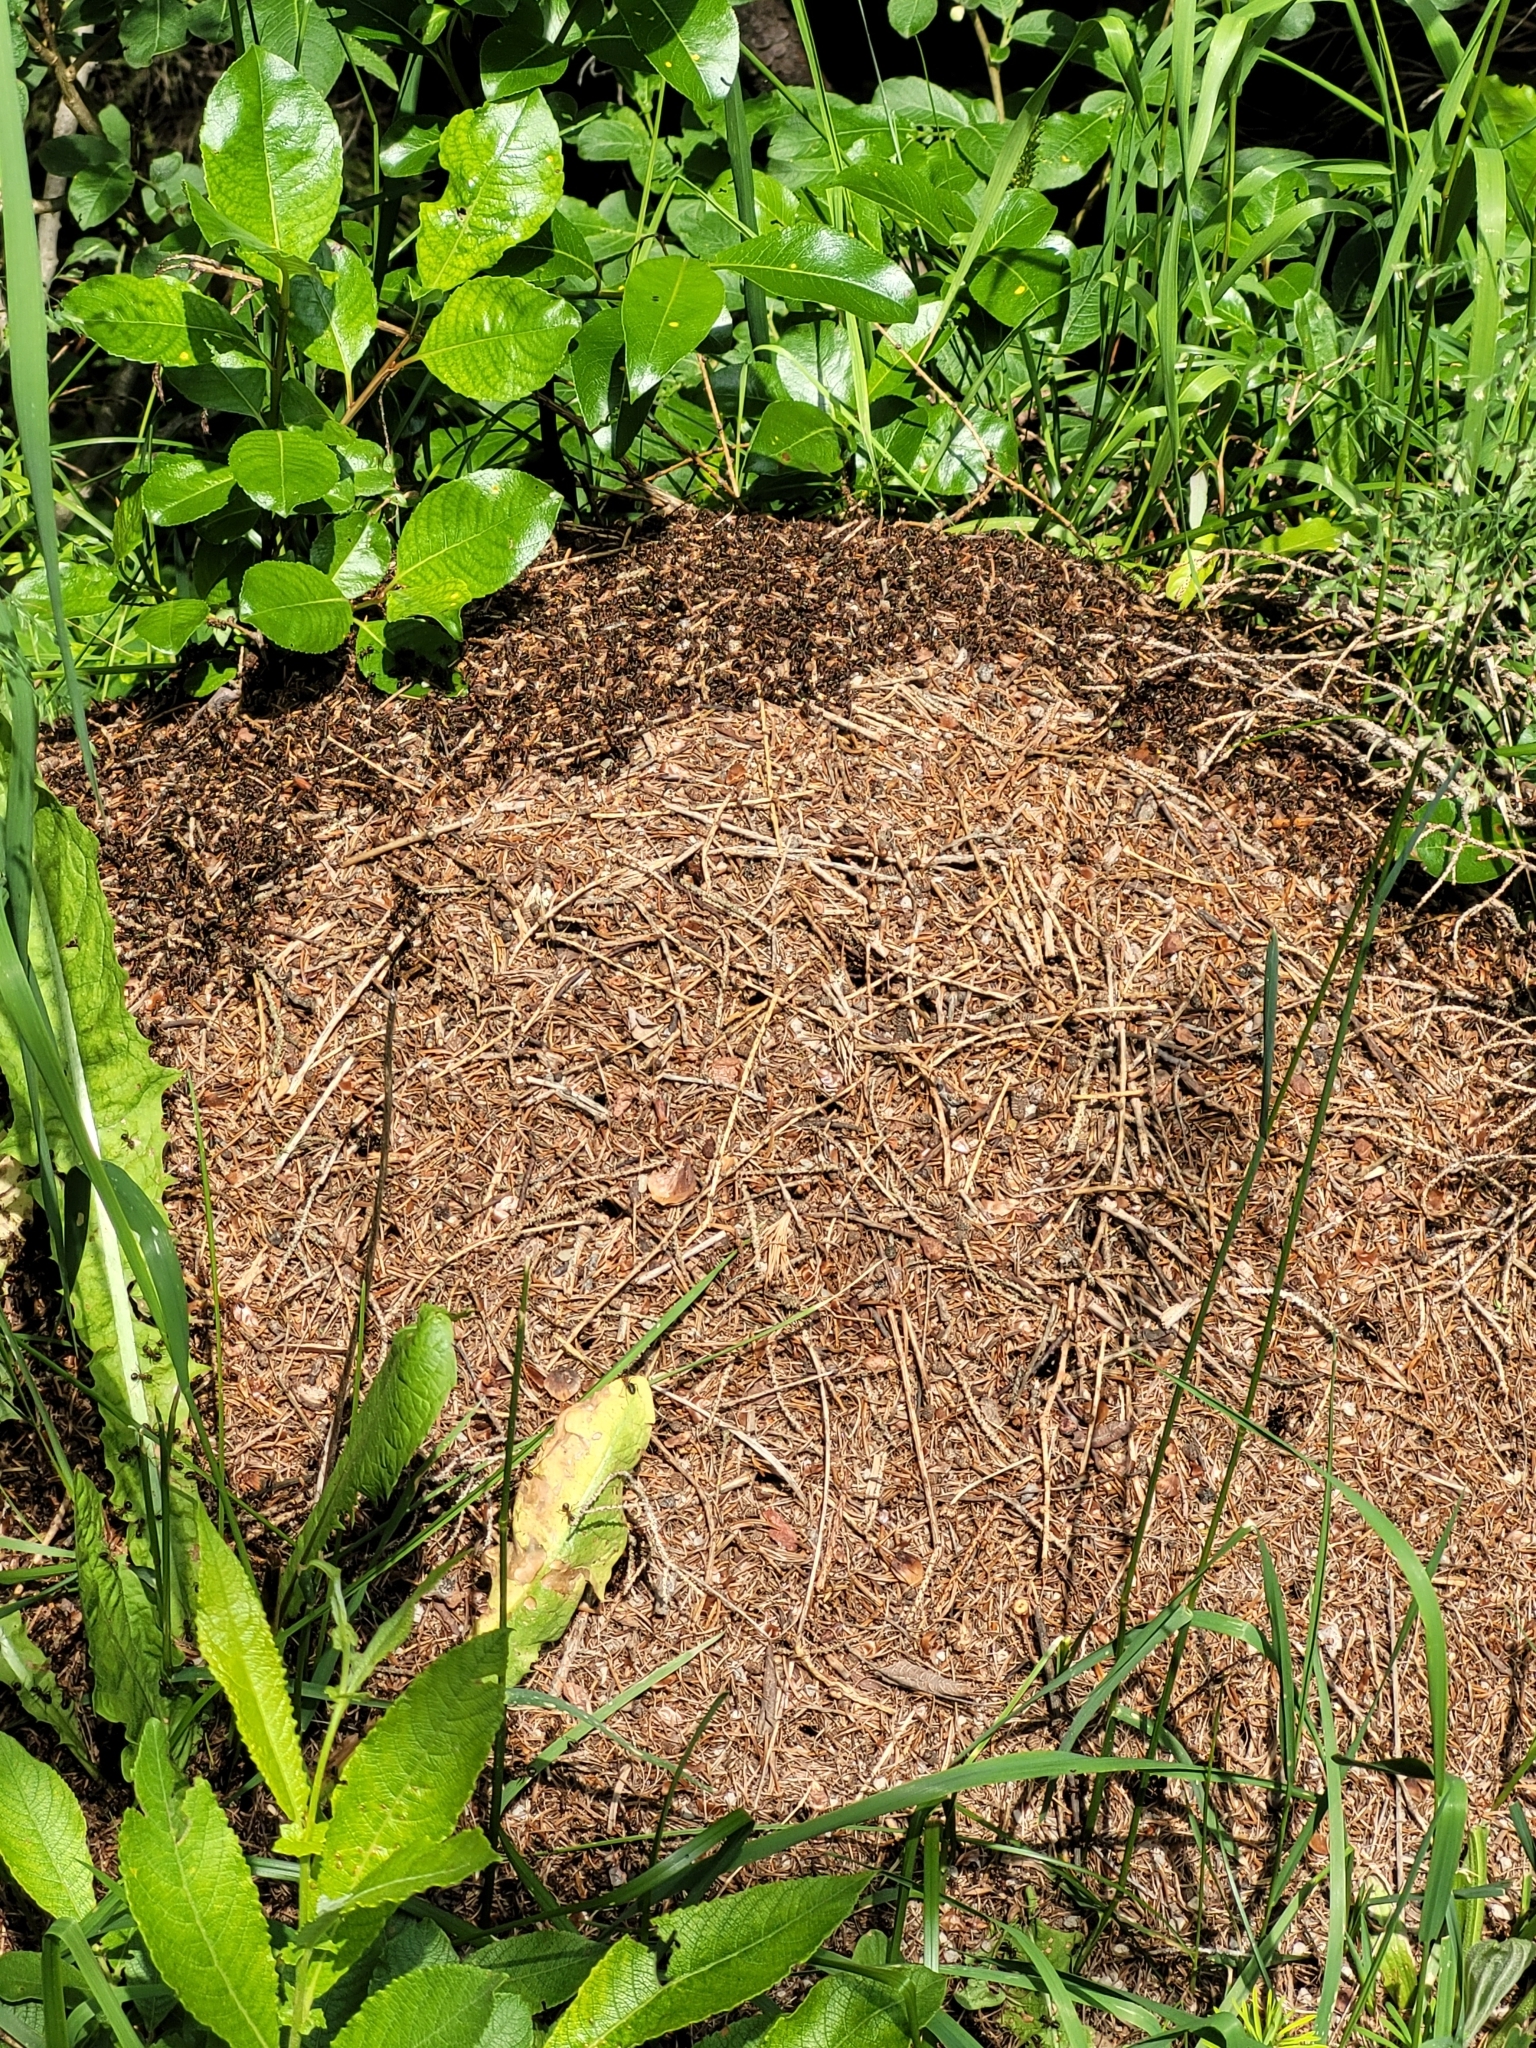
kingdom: Animalia
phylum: Arthropoda
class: Insecta
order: Hymenoptera
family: Formicidae
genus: Formica
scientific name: Formica
